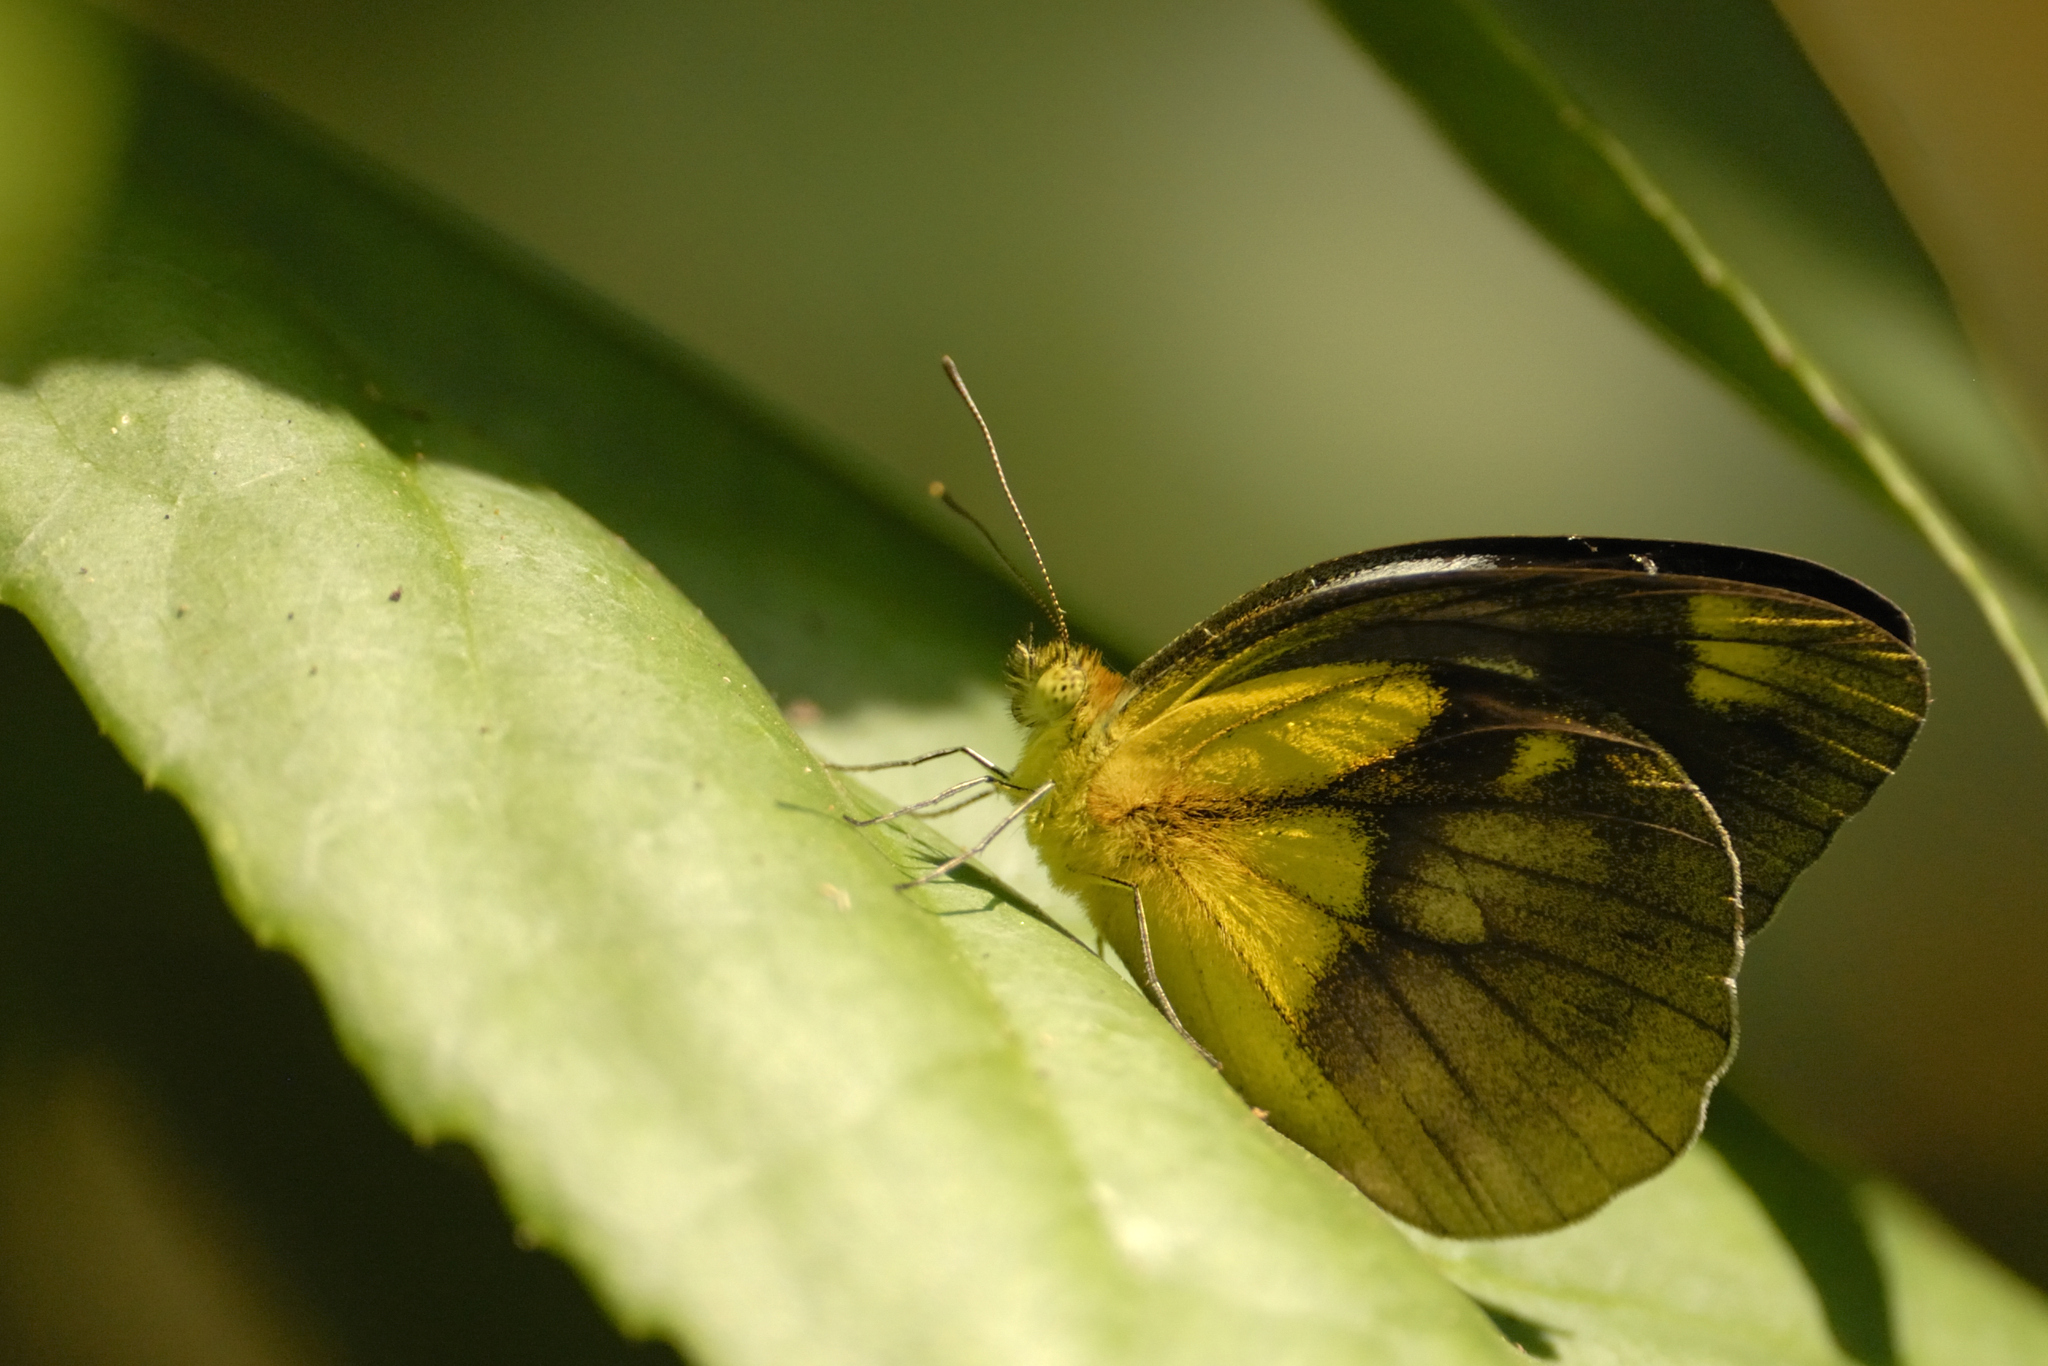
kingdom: Animalia
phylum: Arthropoda
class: Insecta
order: Lepidoptera
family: Pieridae
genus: Cepora
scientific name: Cepora nadina
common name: Lesser gull
